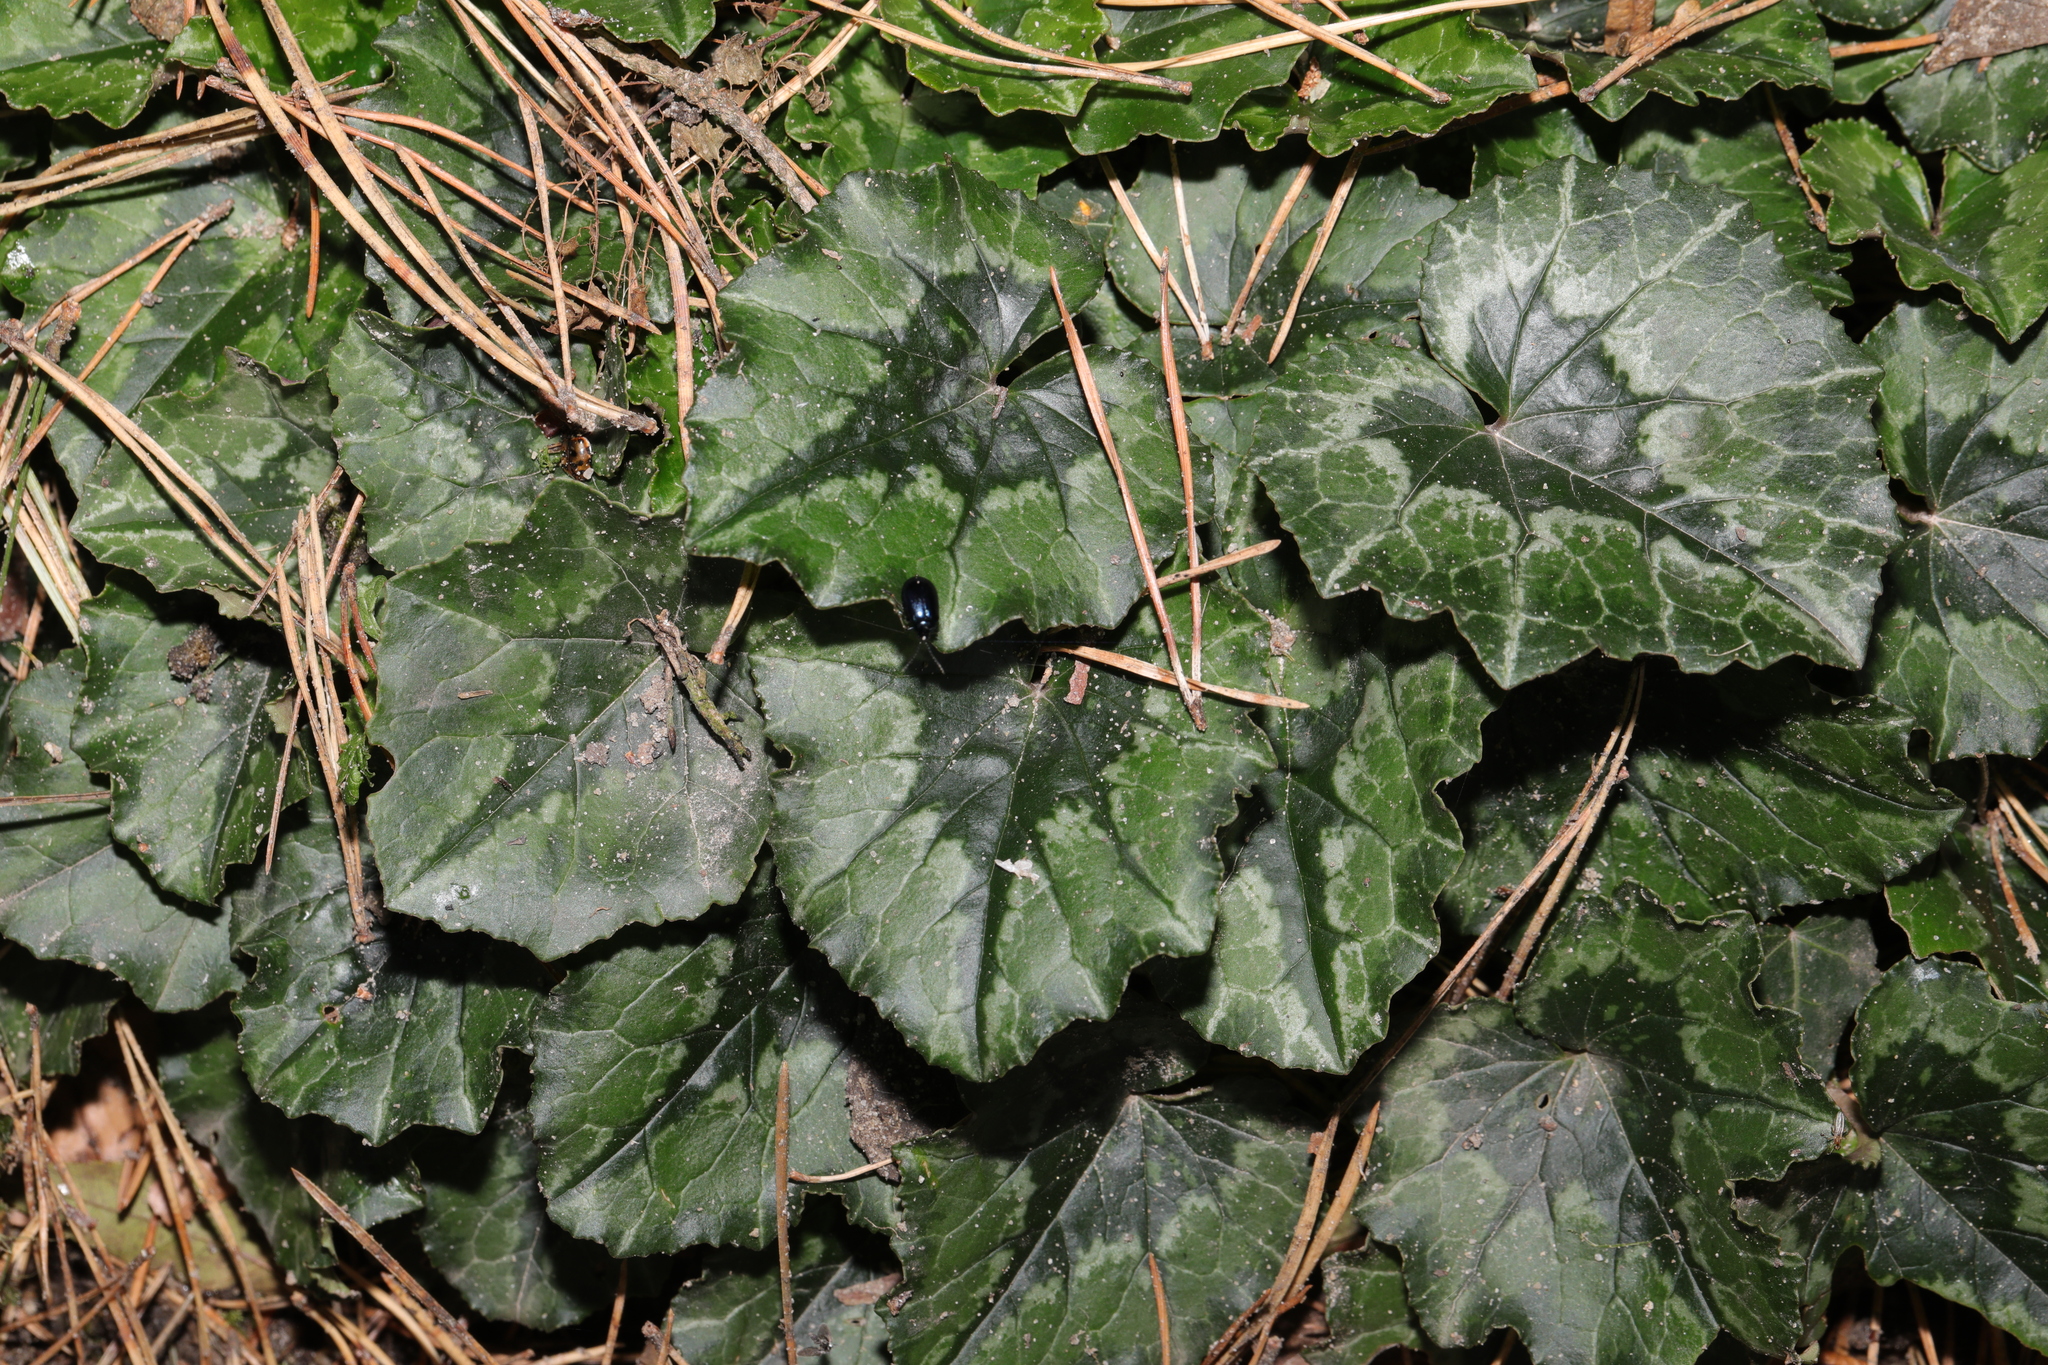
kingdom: Plantae
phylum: Tracheophyta
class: Magnoliopsida
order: Ericales
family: Primulaceae
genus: Cyclamen
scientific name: Cyclamen hederifolium
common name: Sowbread
